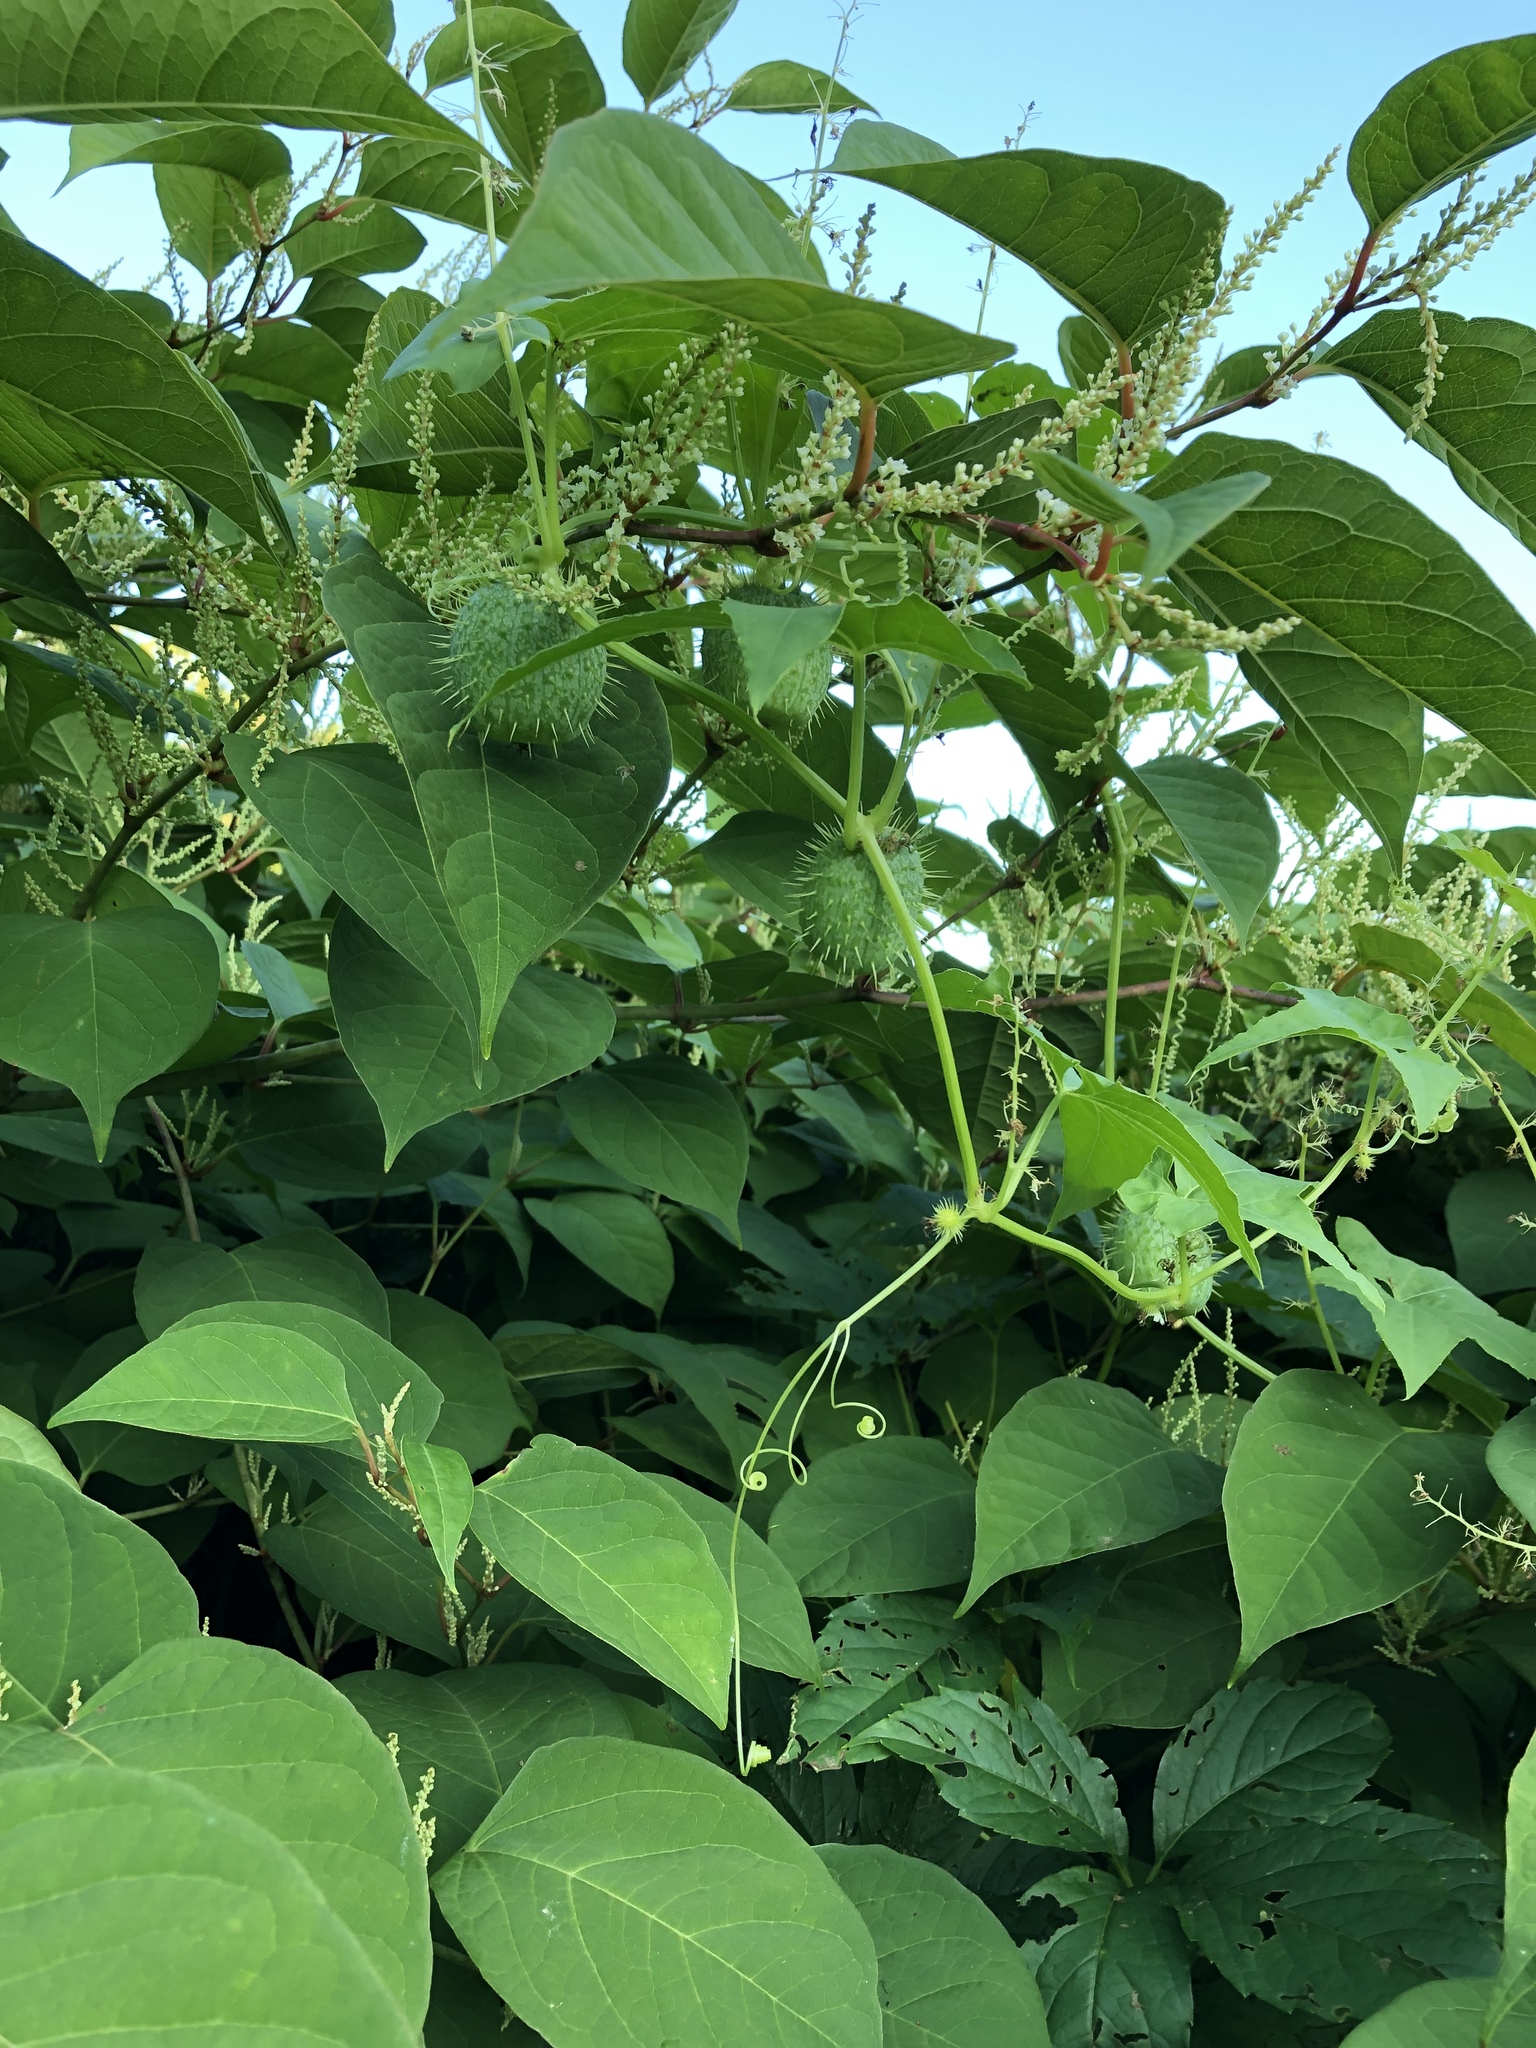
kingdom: Plantae
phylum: Tracheophyta
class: Magnoliopsida
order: Cucurbitales
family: Cucurbitaceae
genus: Echinocystis
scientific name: Echinocystis lobata
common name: Wild cucumber
